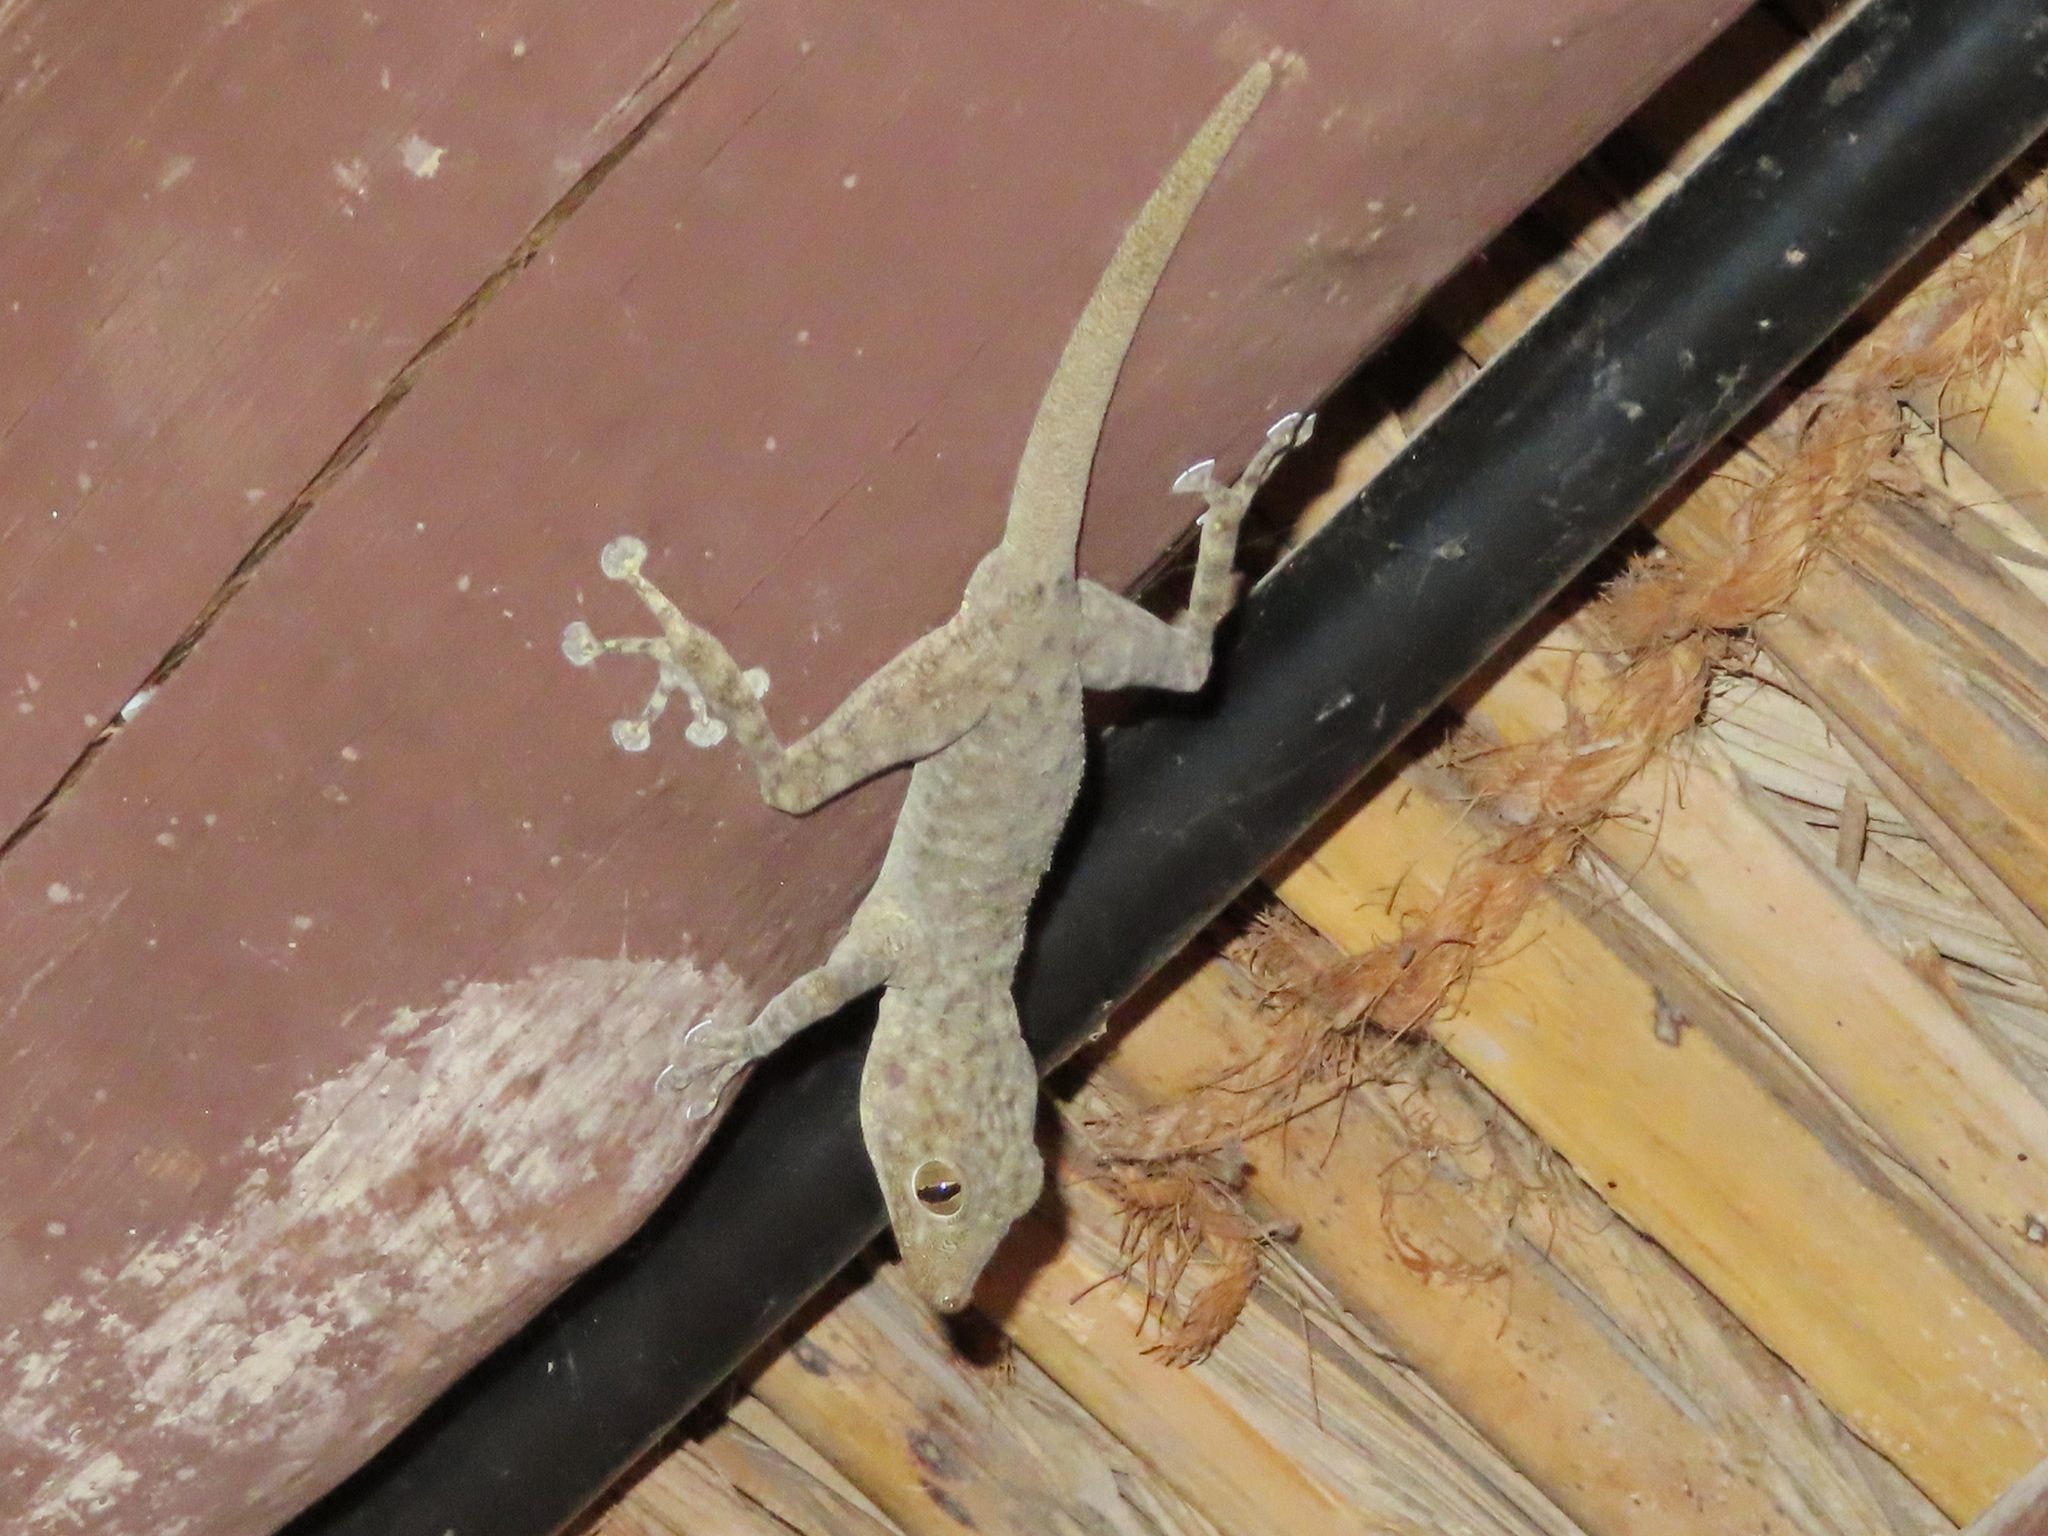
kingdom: Animalia
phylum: Chordata
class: Squamata
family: Phyllodactylidae
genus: Ptyodactylus
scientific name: Ptyodactylus orlovi
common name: Orlov's fan-footed gecko
